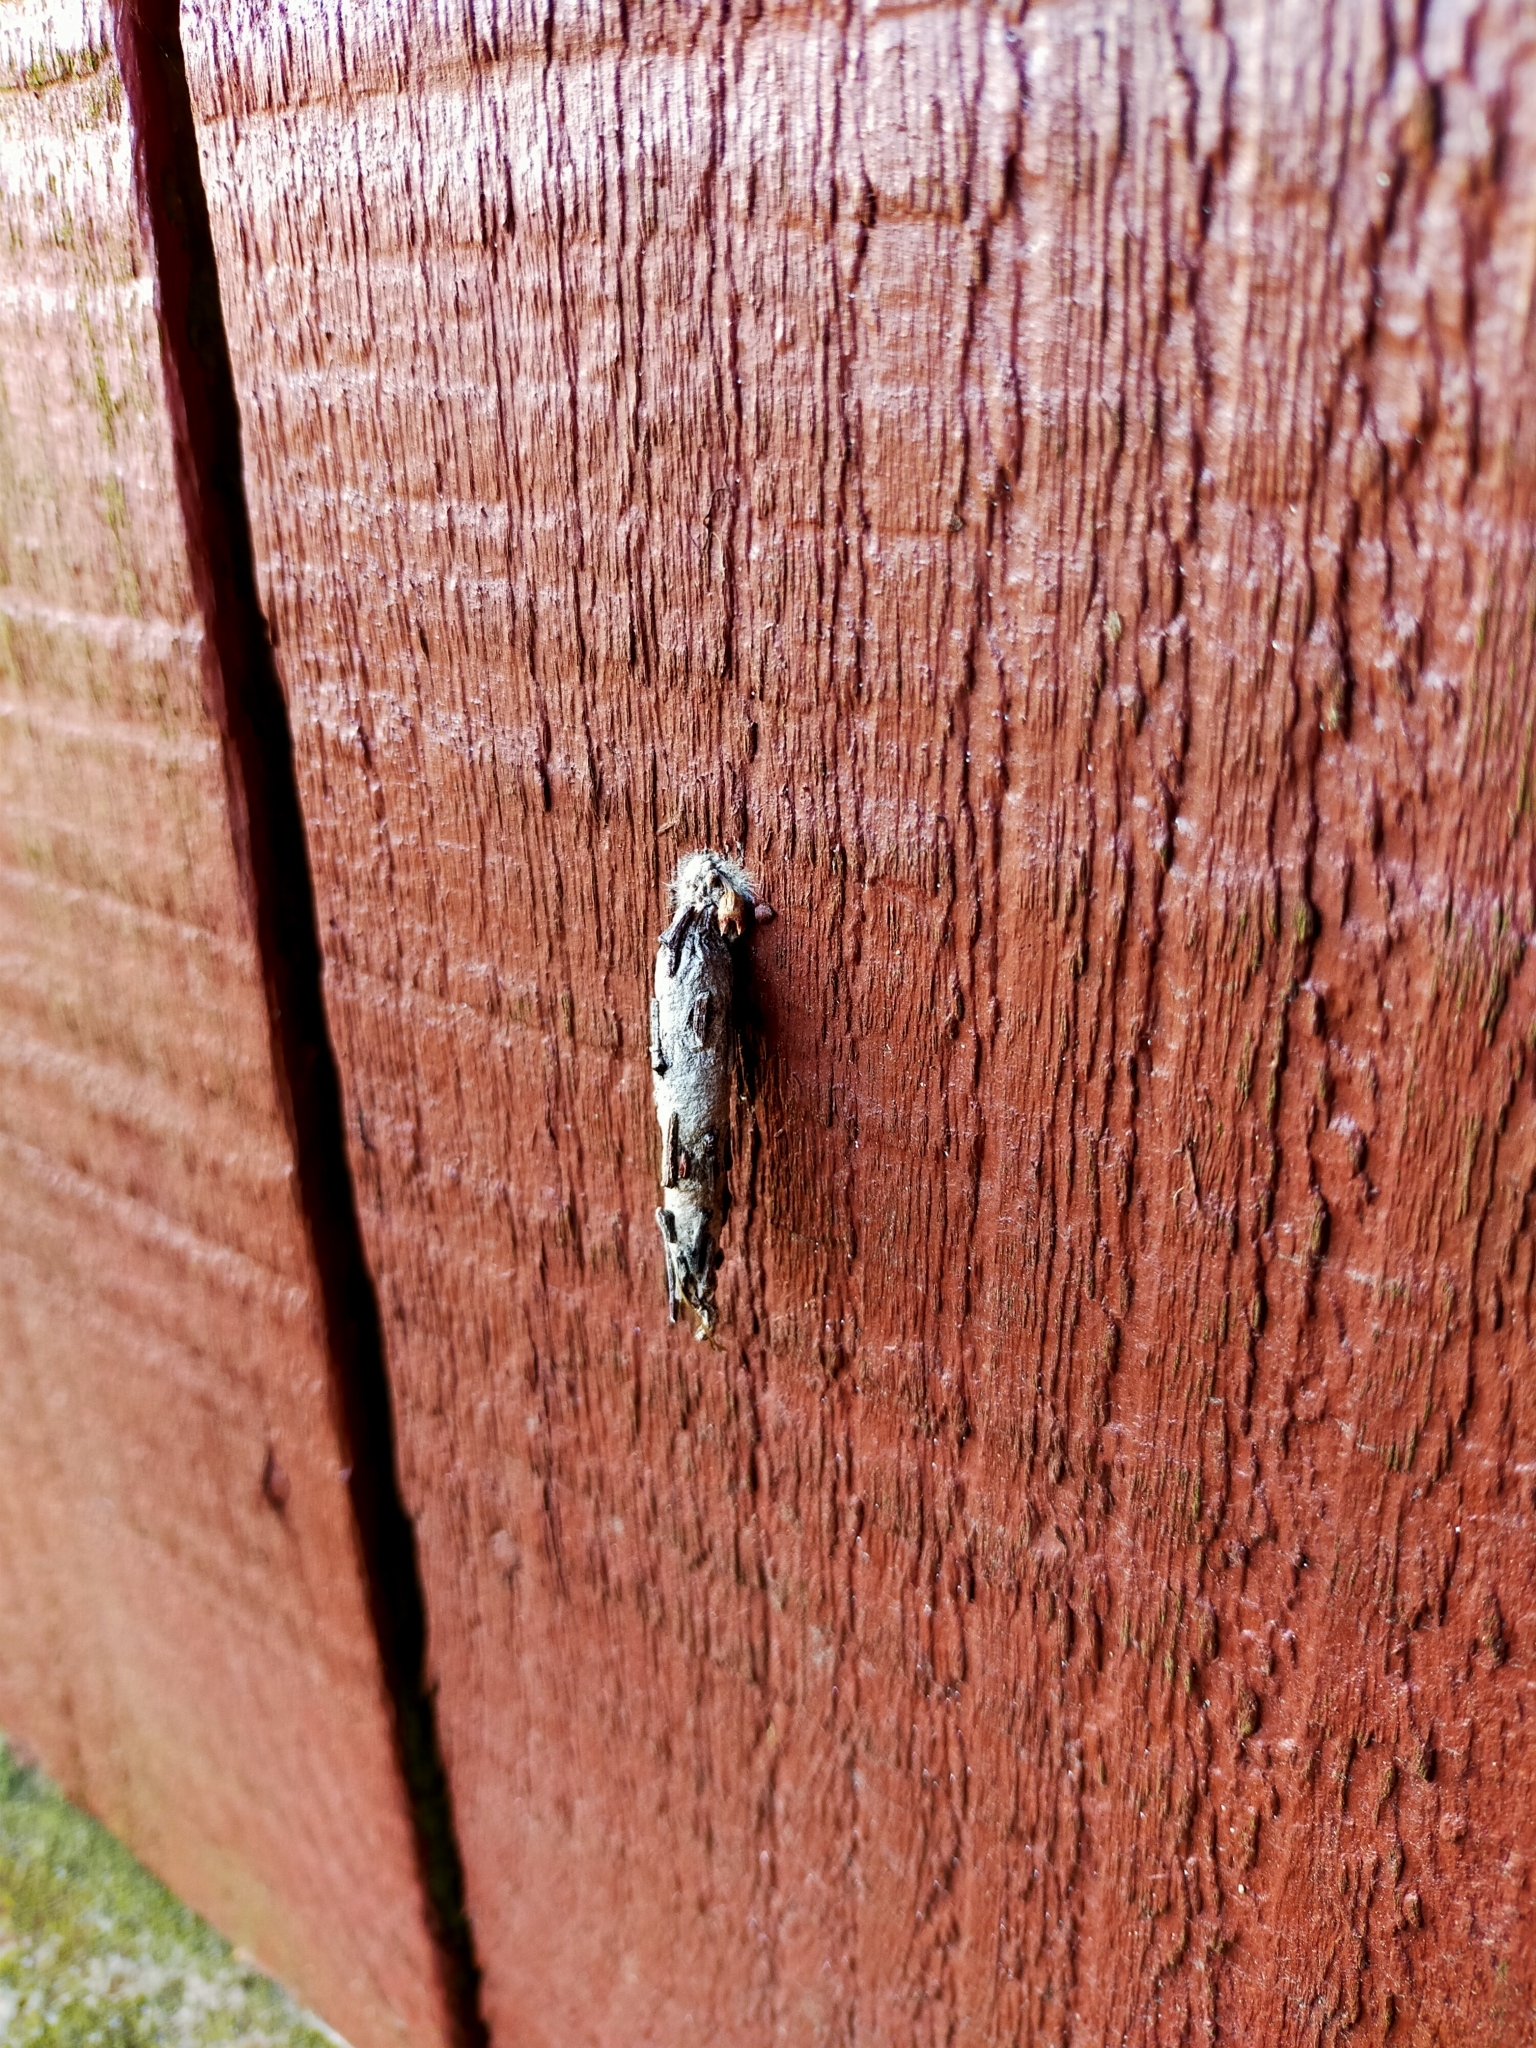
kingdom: Animalia
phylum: Arthropoda
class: Insecta
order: Lepidoptera
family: Psychidae
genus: Liothula
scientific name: Liothula omnivora
